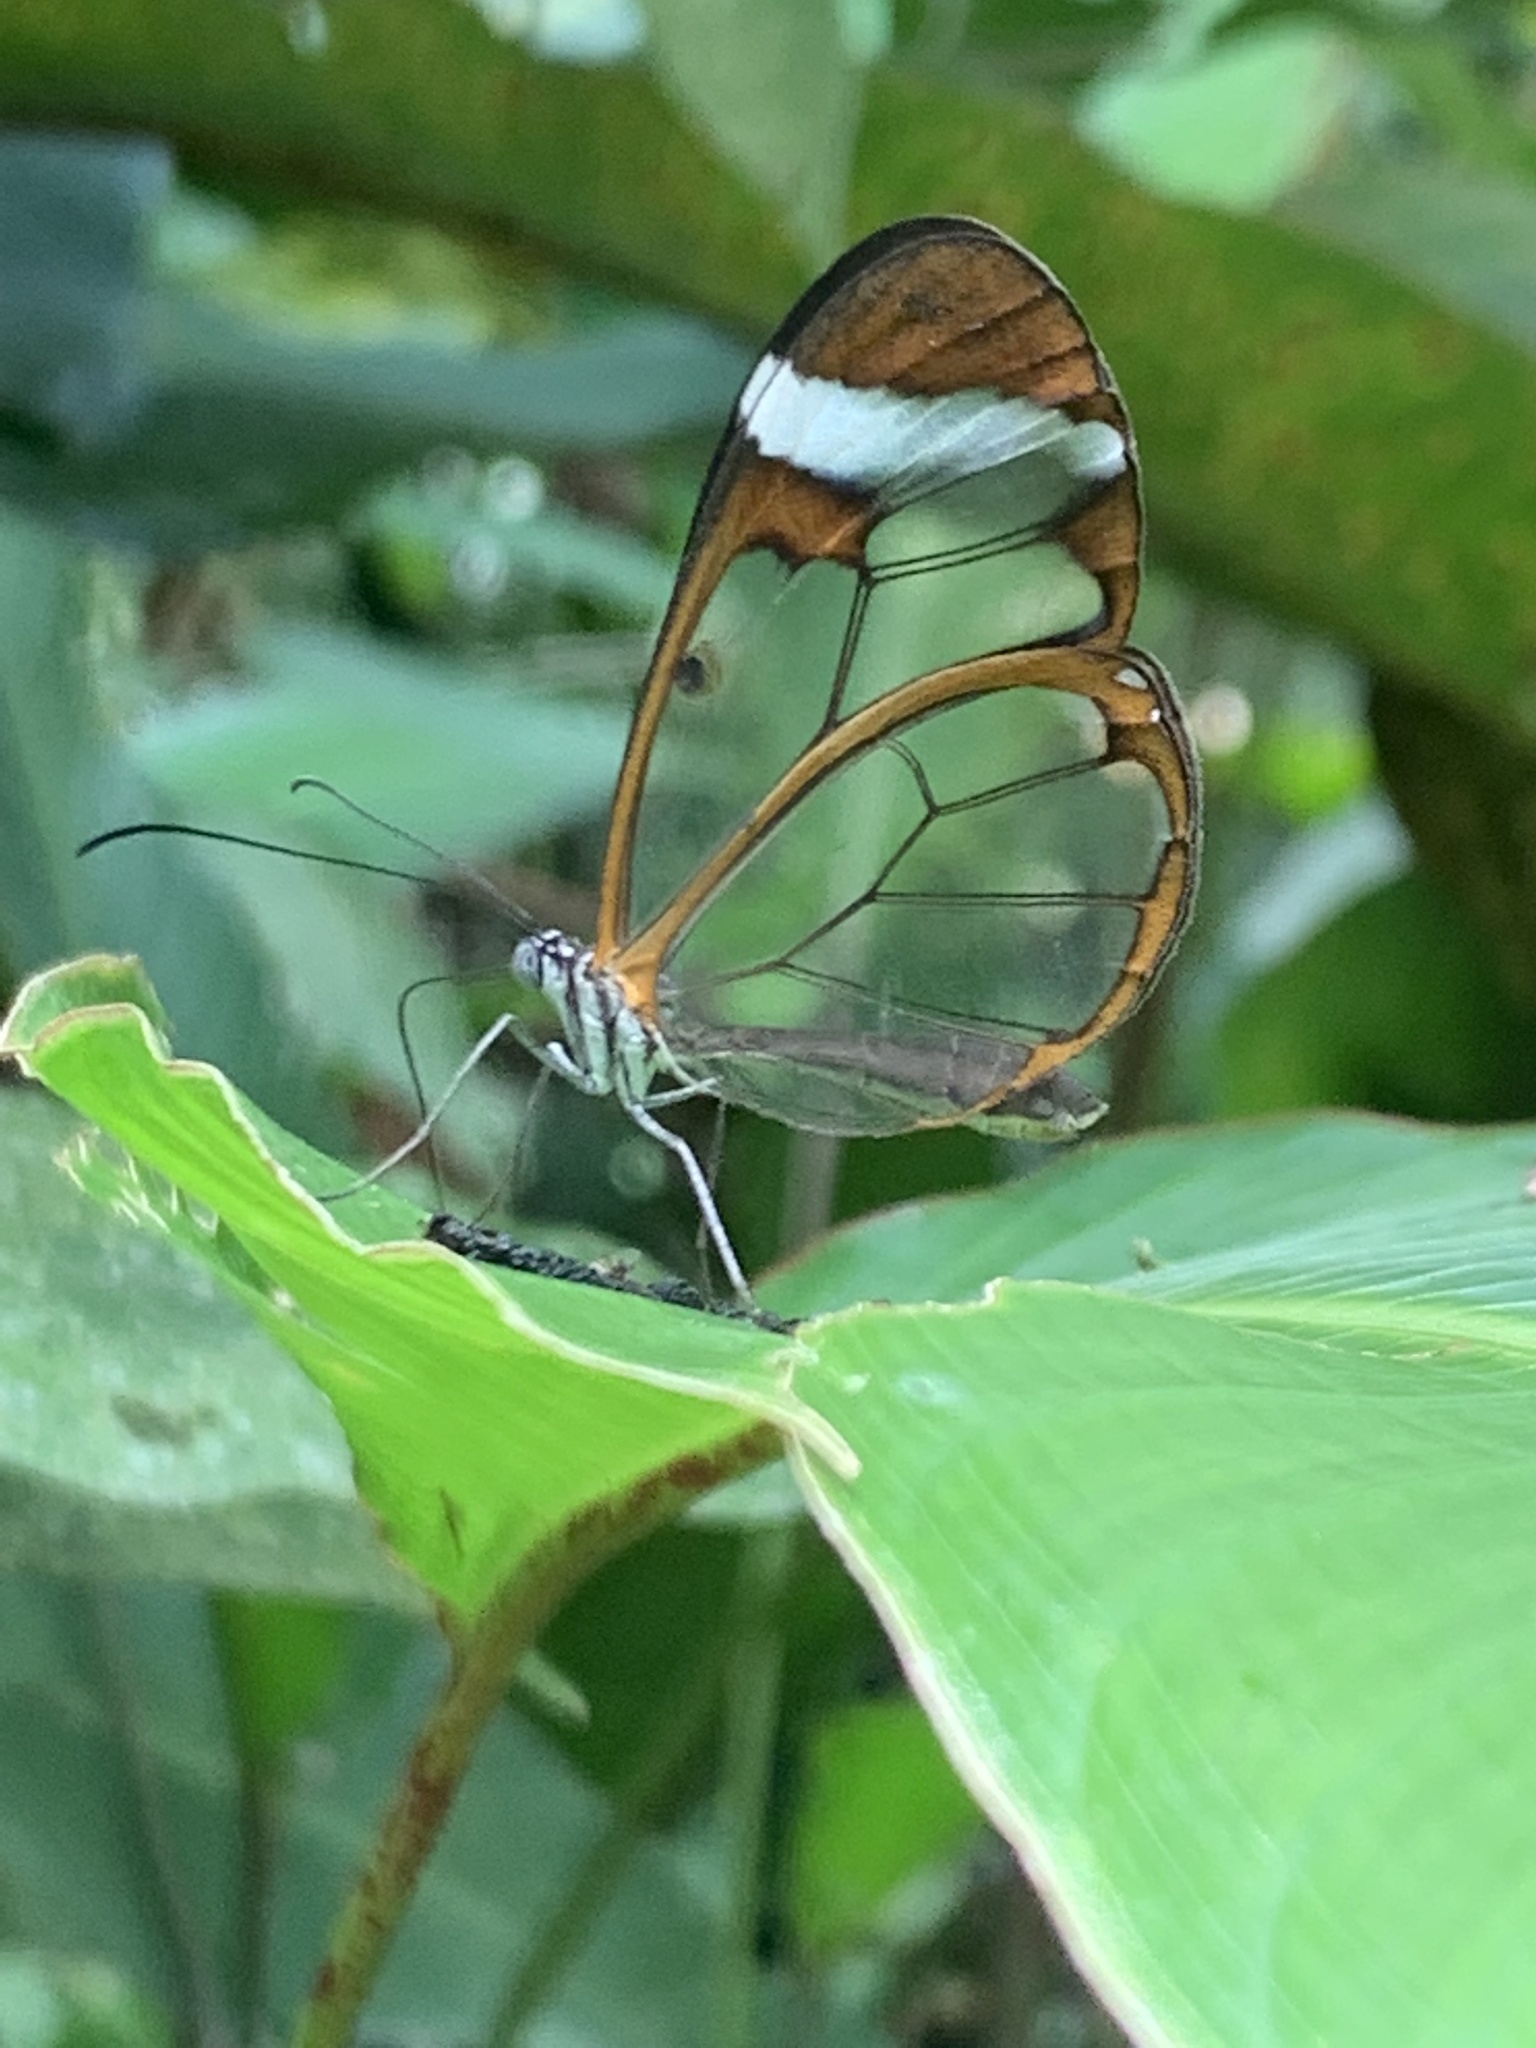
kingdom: Animalia
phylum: Arthropoda
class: Insecta
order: Lepidoptera
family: Nymphalidae
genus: Greta
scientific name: Greta morgane
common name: Thick-tipped greta
